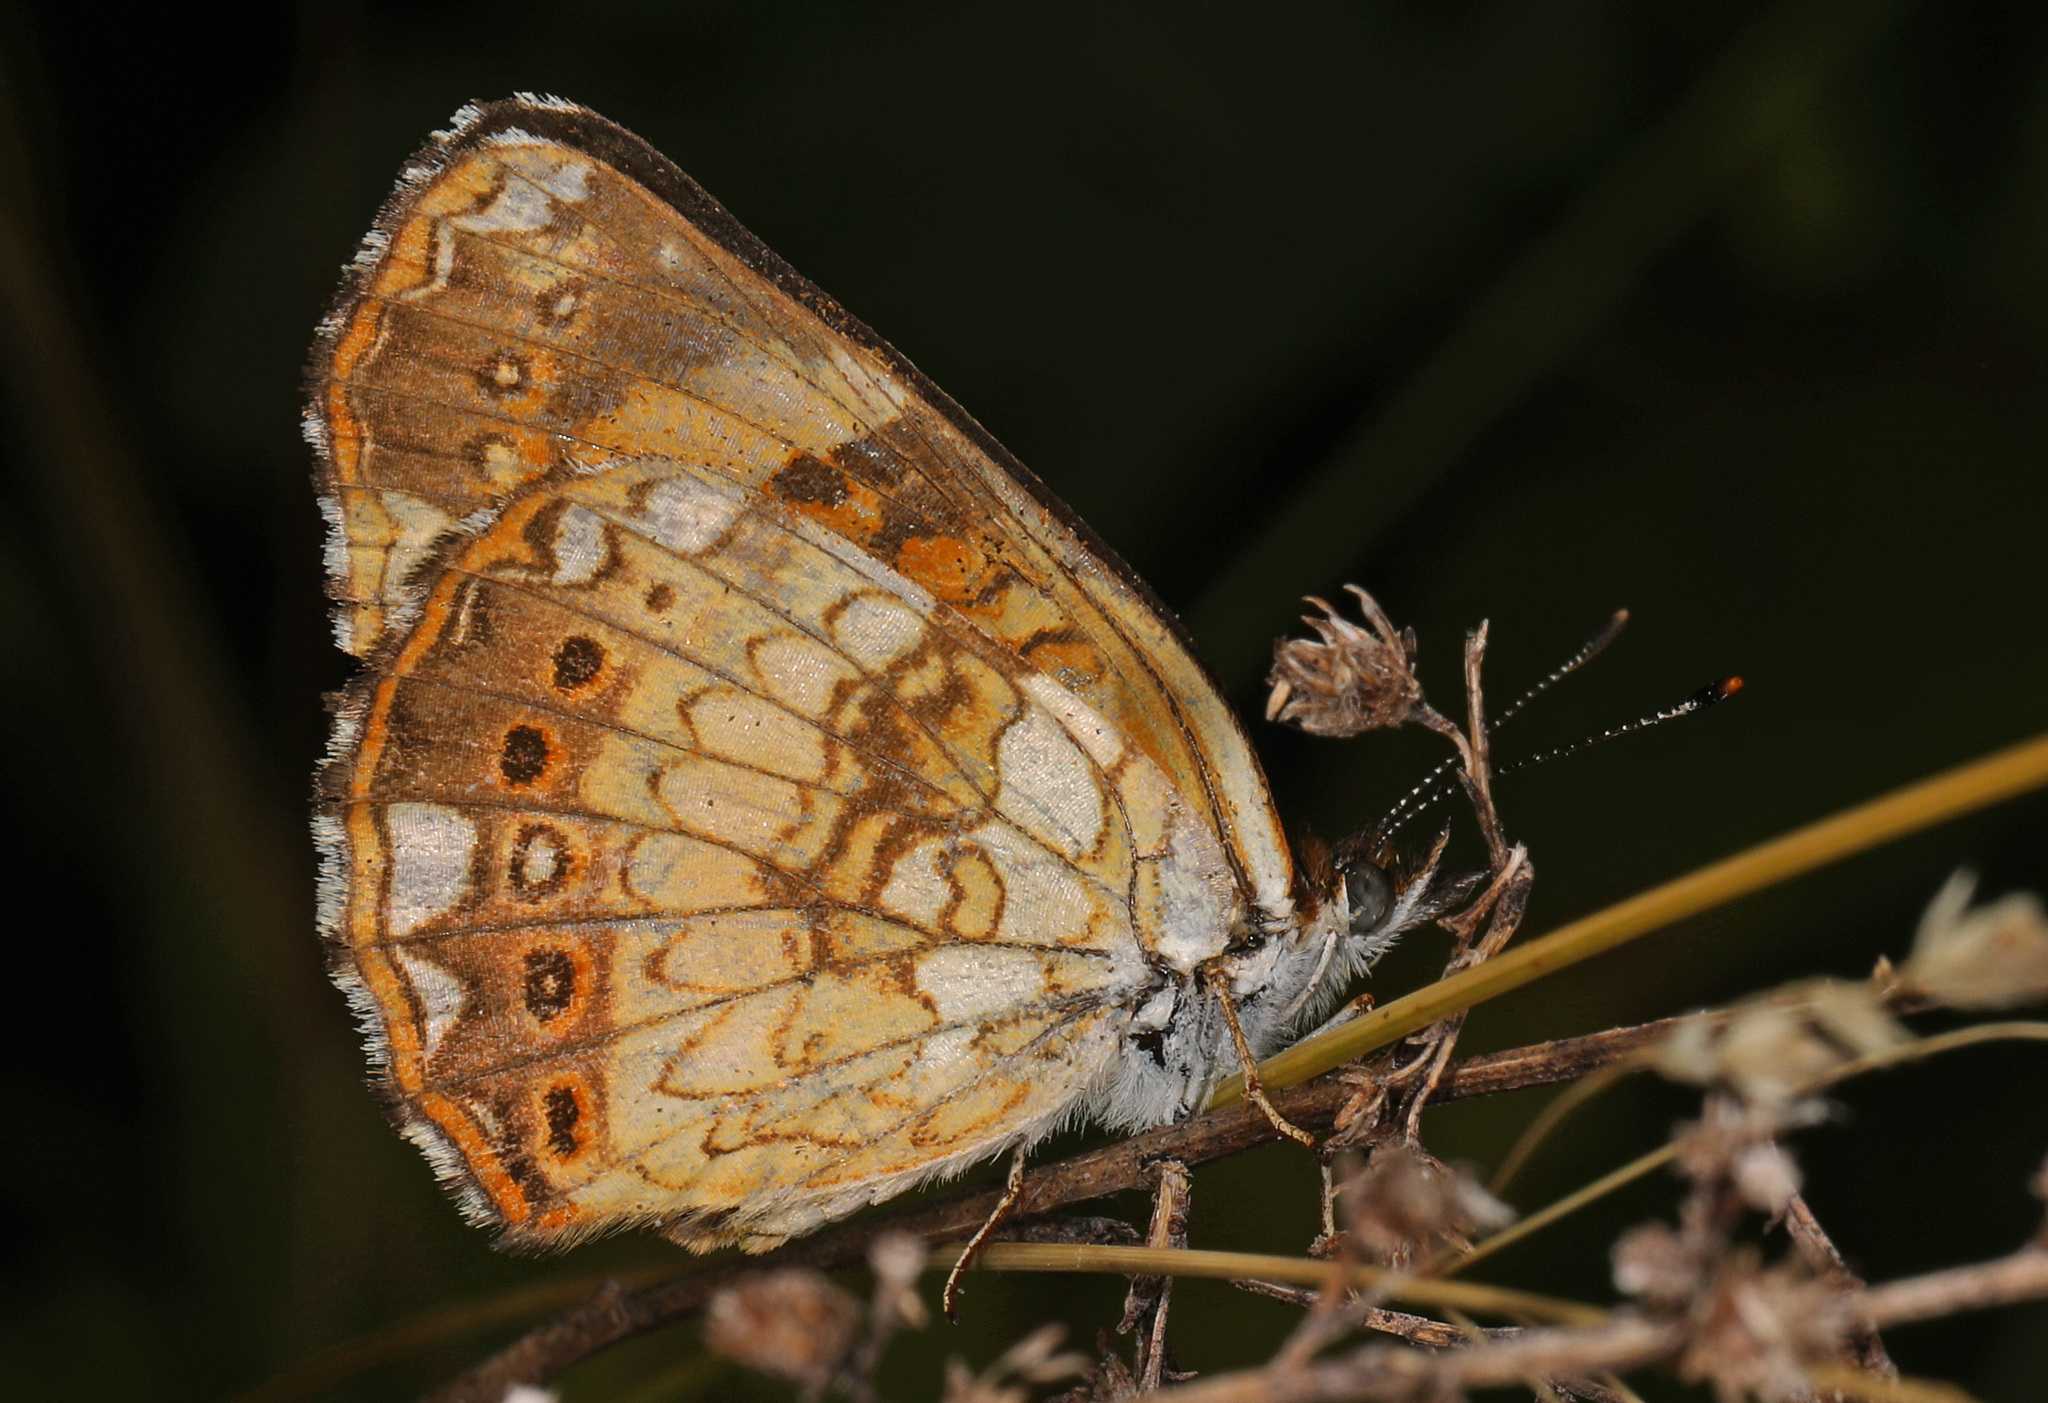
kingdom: Animalia
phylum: Arthropoda
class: Insecta
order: Lepidoptera
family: Nymphalidae
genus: Chlosyne
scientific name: Chlosyne nycteis
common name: Silvery checkerspot
